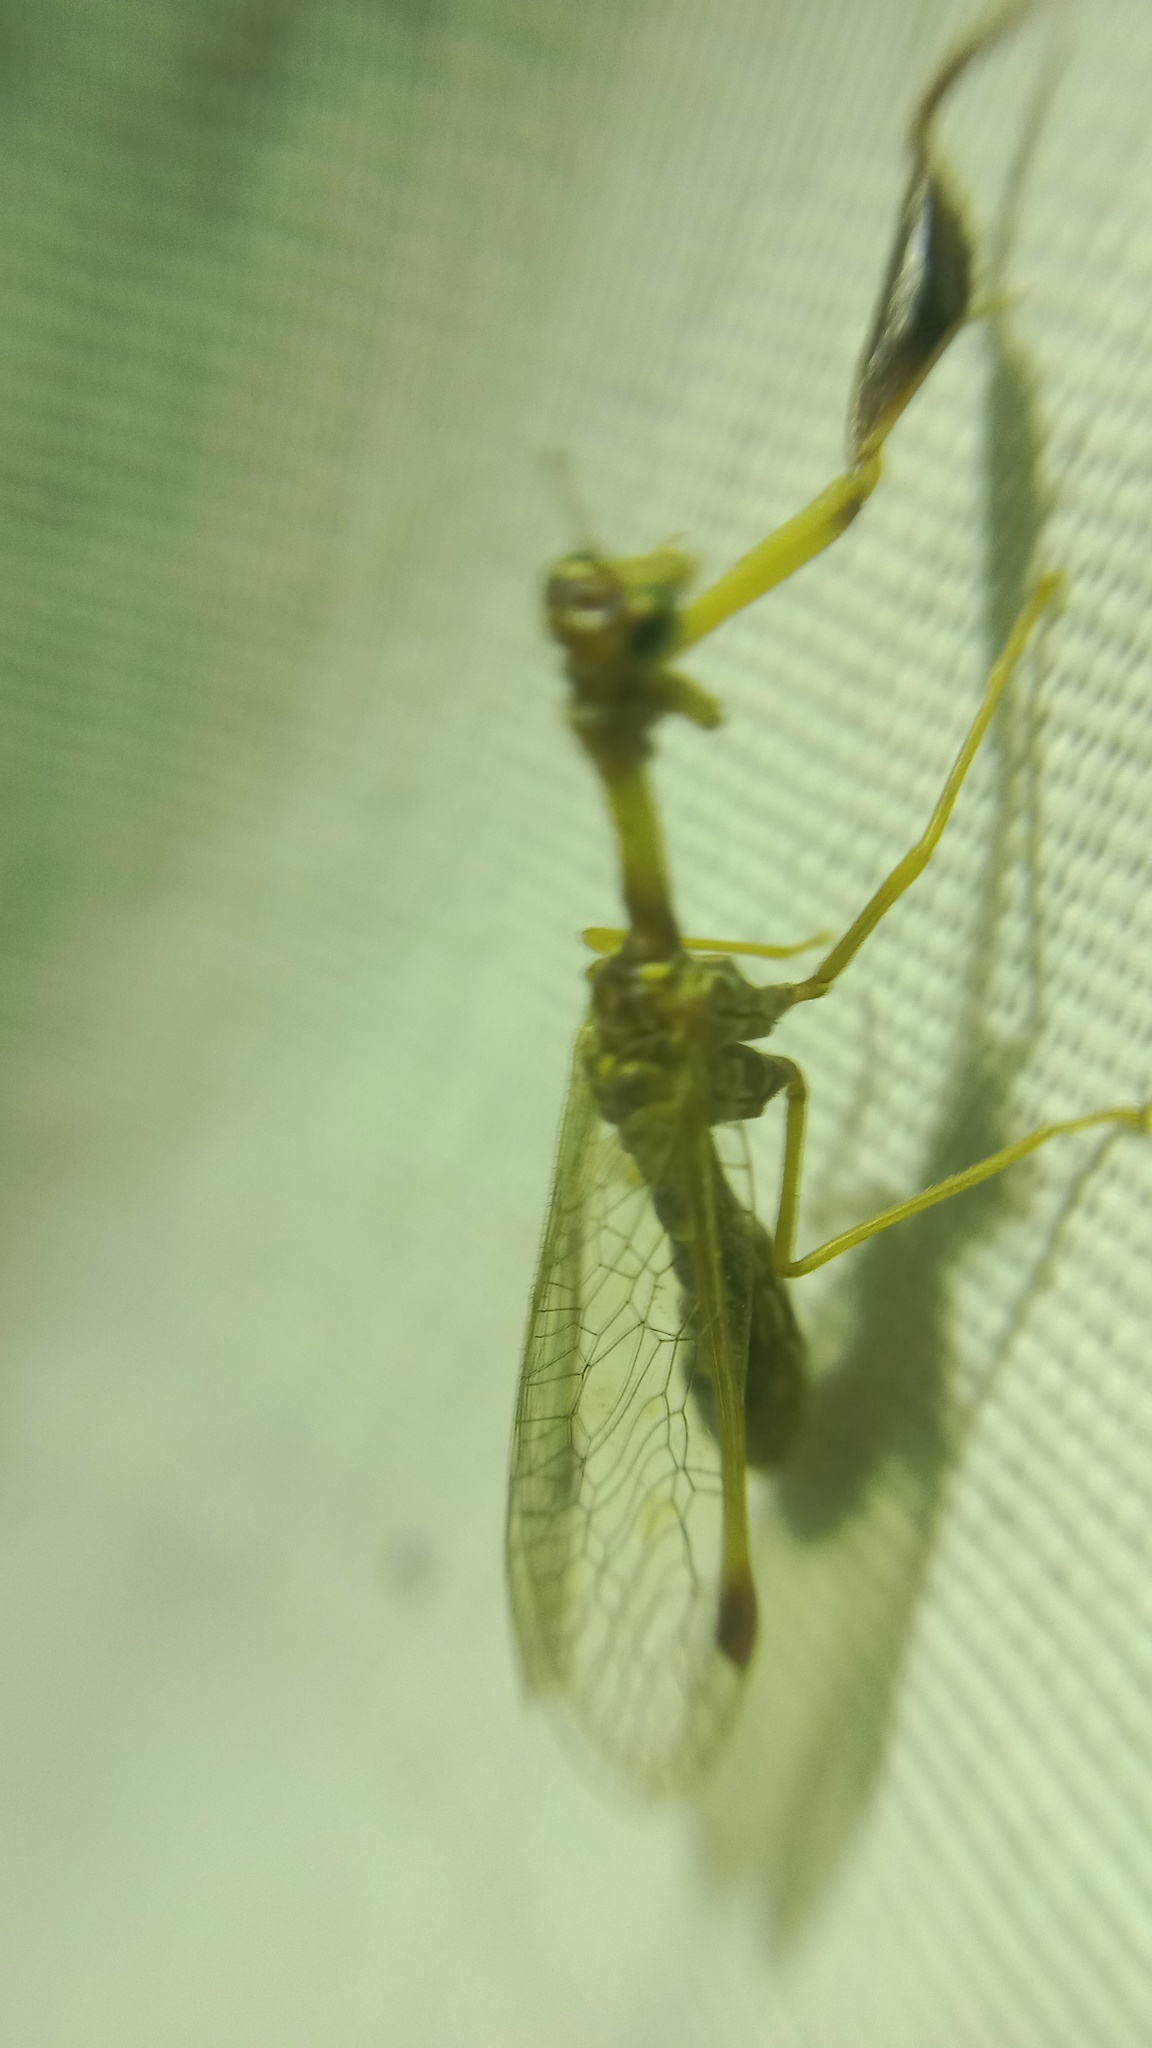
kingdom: Animalia
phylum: Arthropoda
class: Insecta
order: Neuroptera
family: Mantispidae
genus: Mantispa
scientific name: Mantispa styriaca
